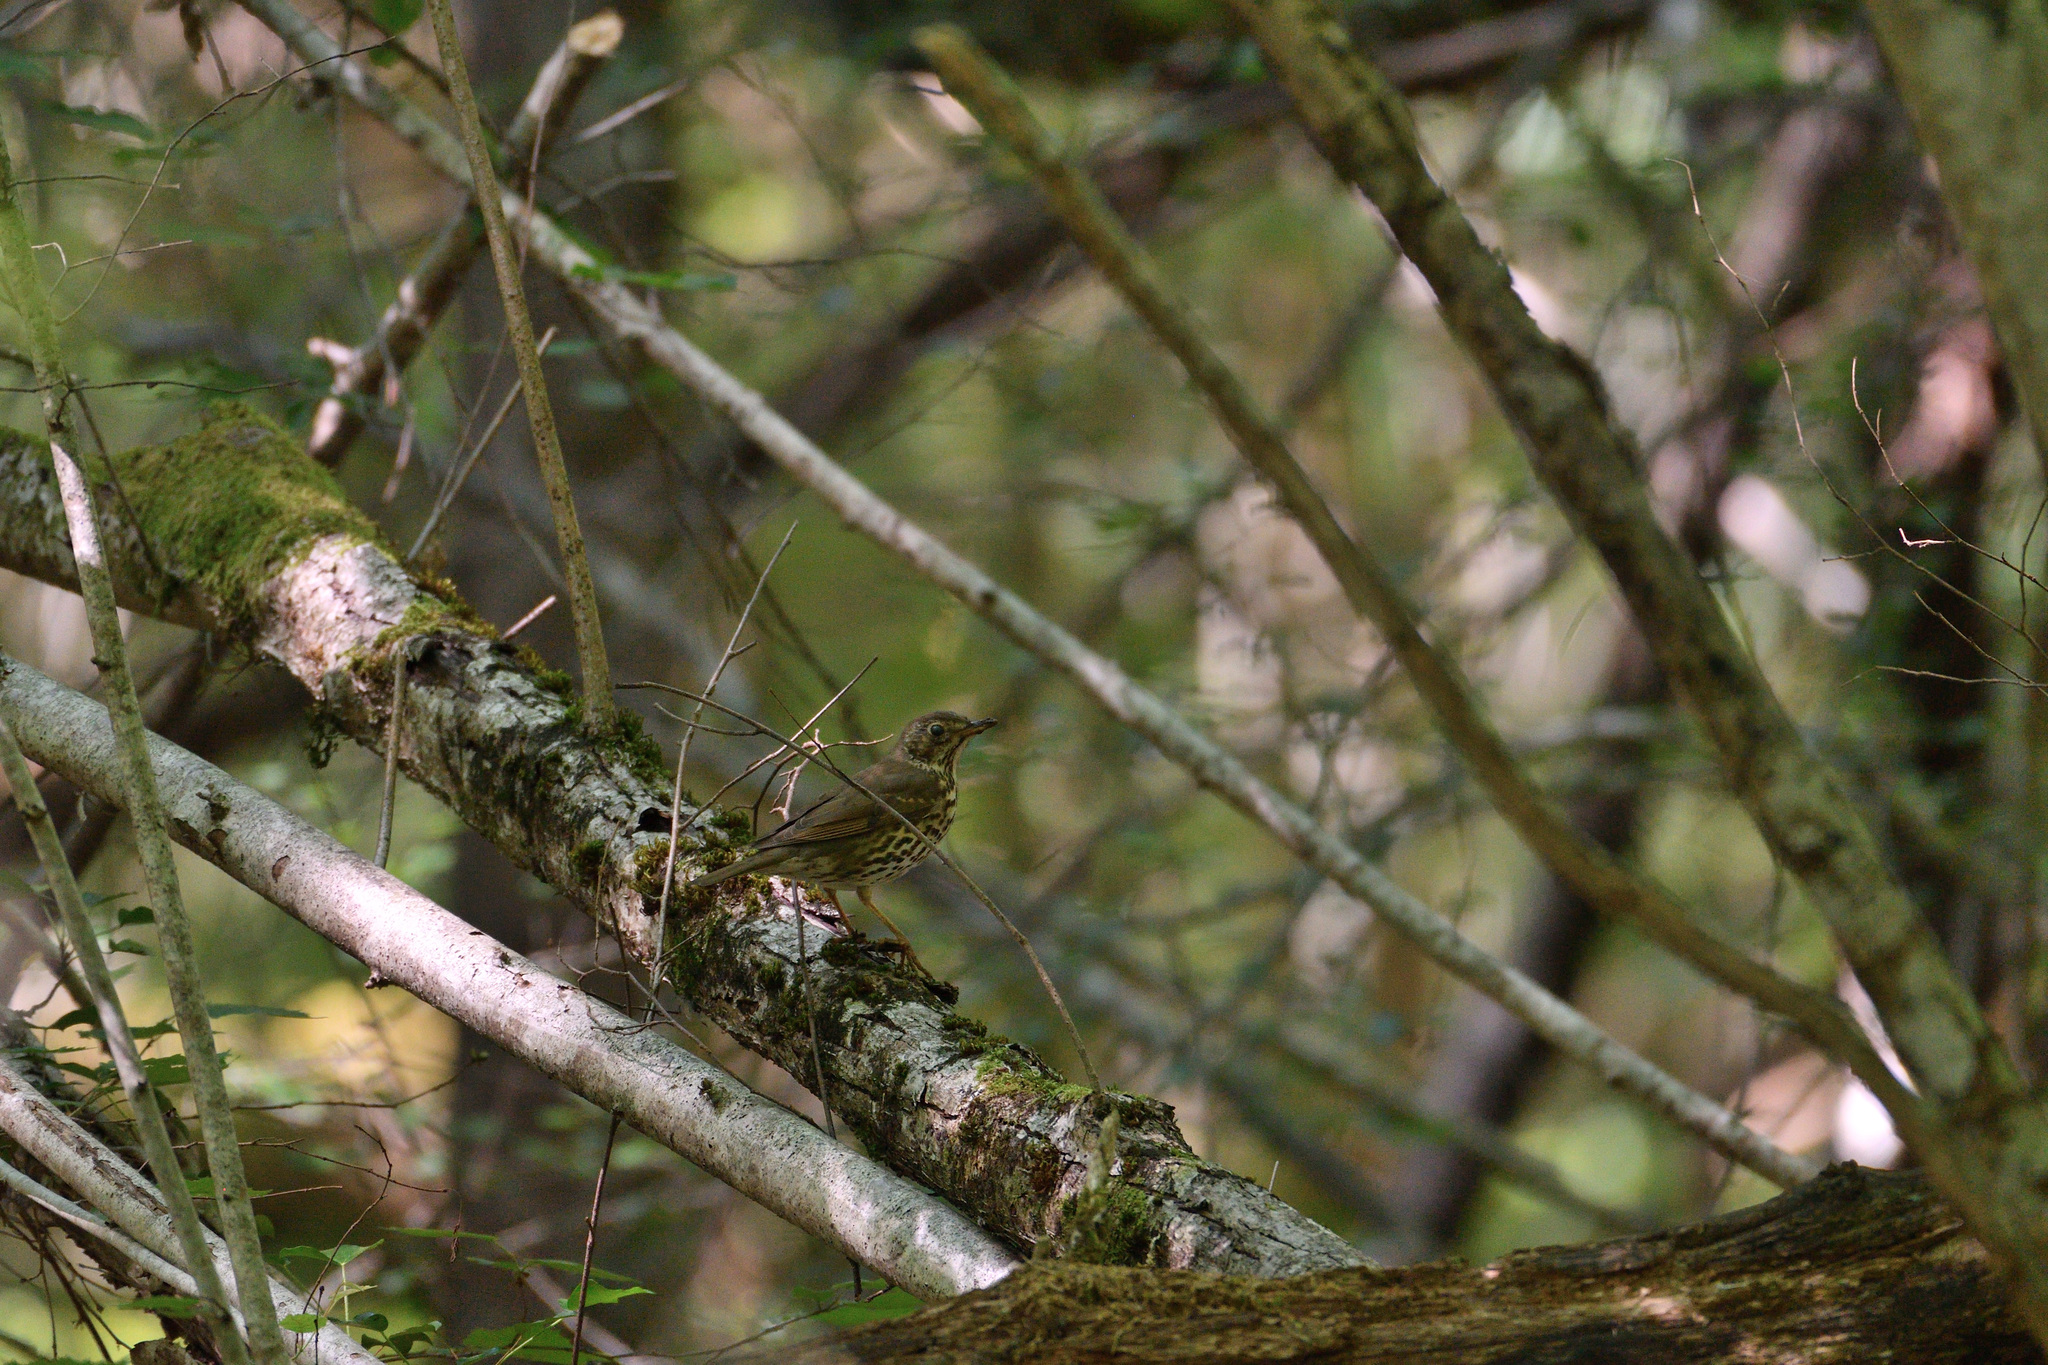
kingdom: Animalia
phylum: Chordata
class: Aves
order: Passeriformes
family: Turdidae
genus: Turdus
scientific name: Turdus philomelos
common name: Song thrush
